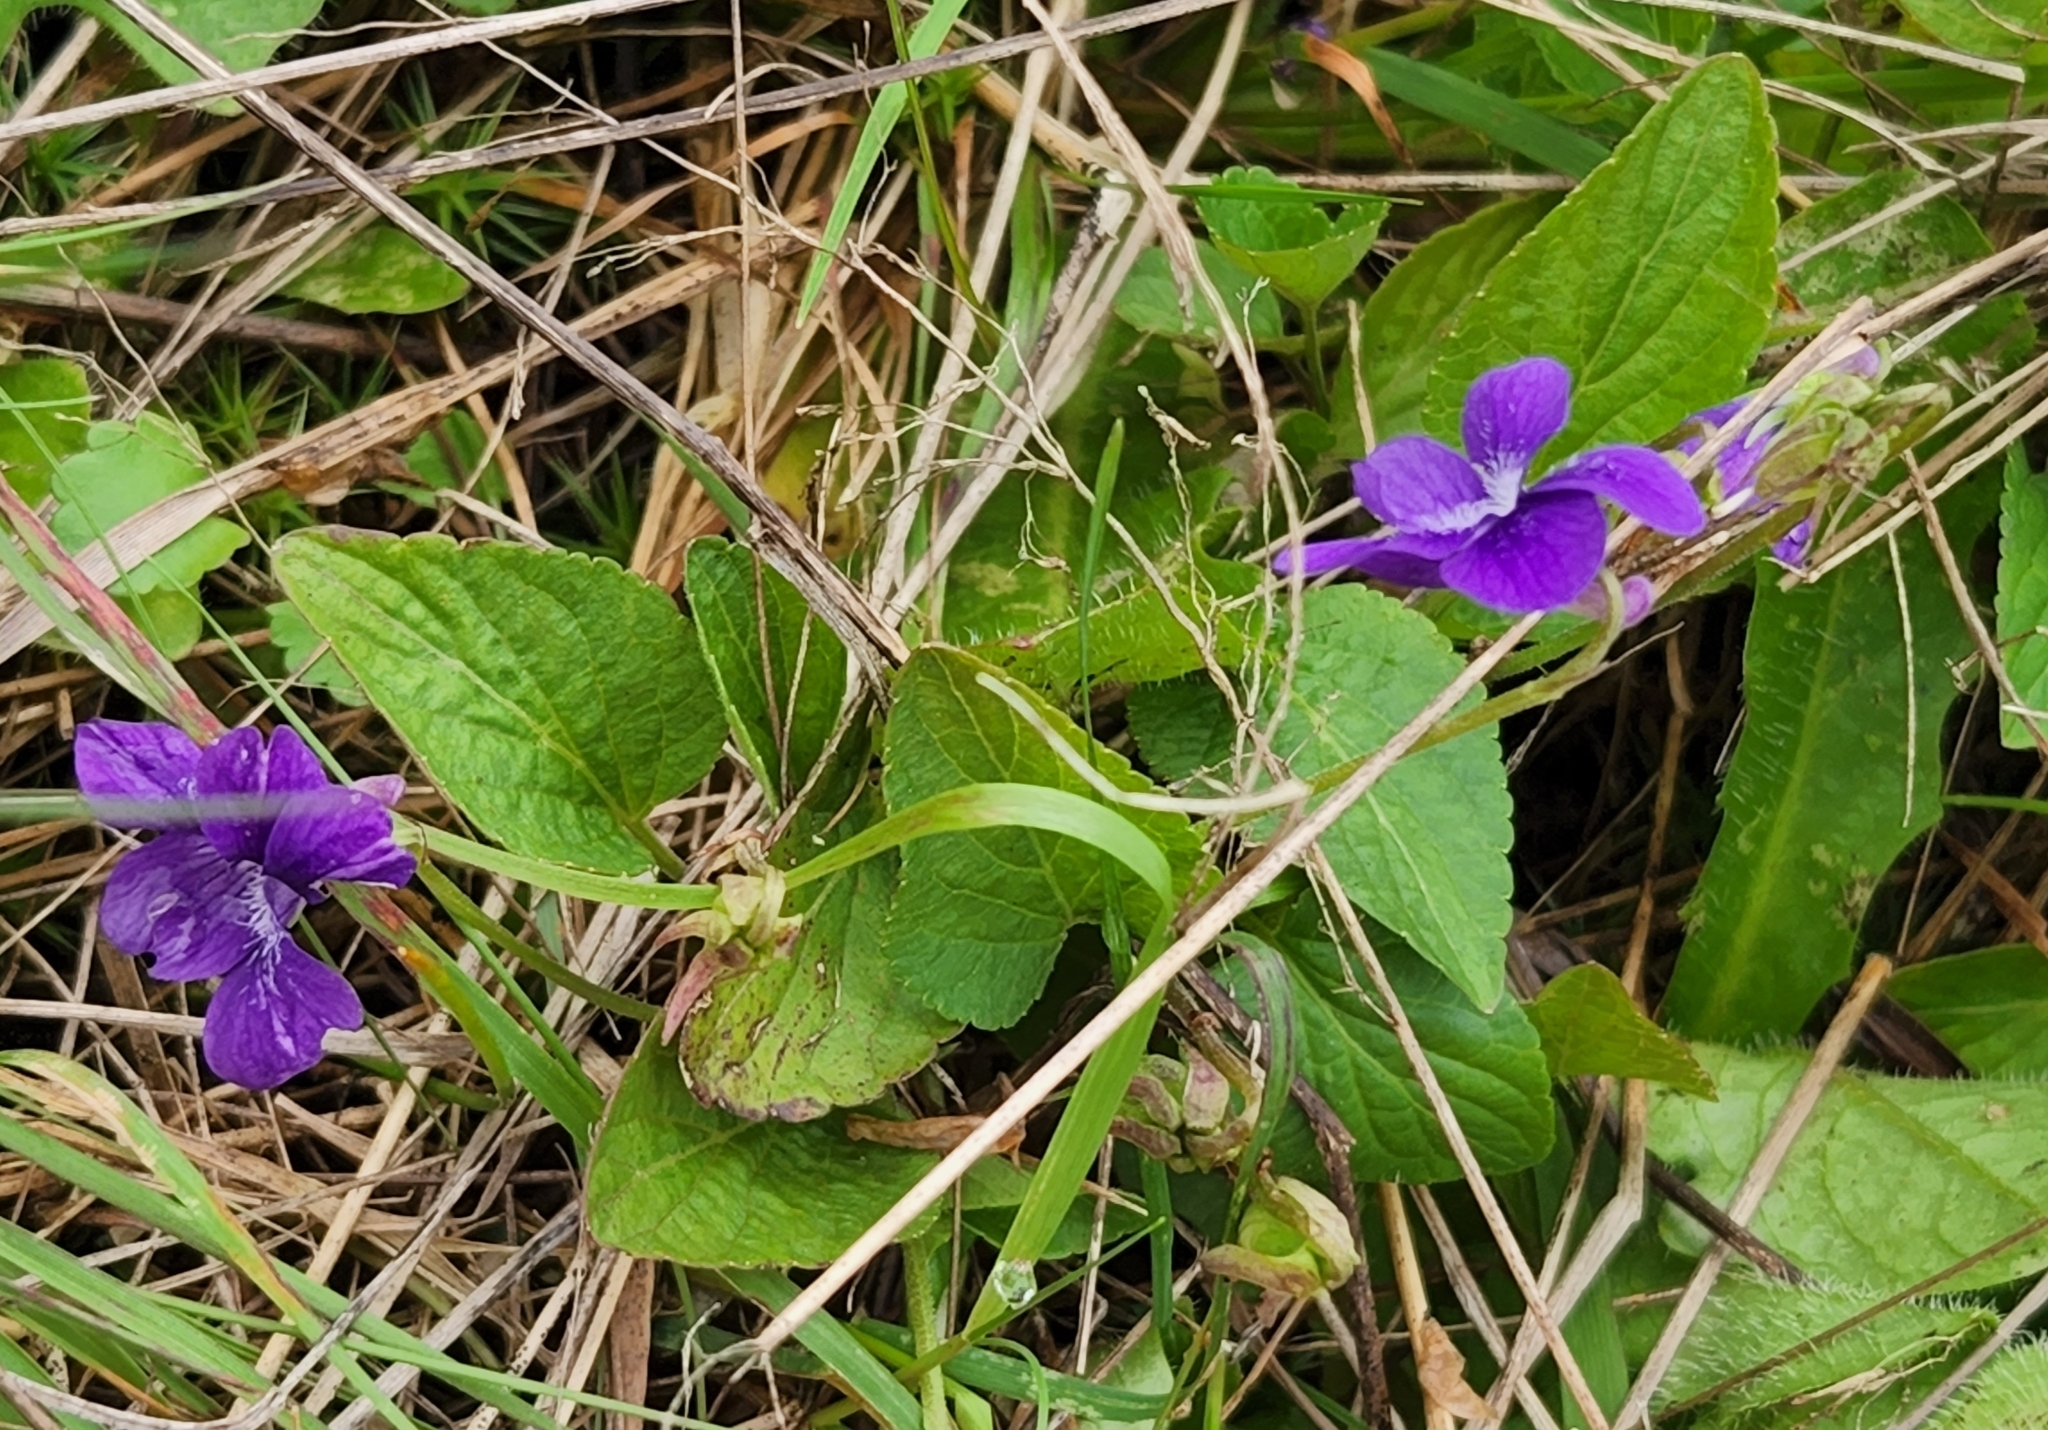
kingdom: Plantae
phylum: Tracheophyta
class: Magnoliopsida
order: Malpighiales
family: Violaceae
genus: Viola
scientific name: Viola adunca
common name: Sand violet
